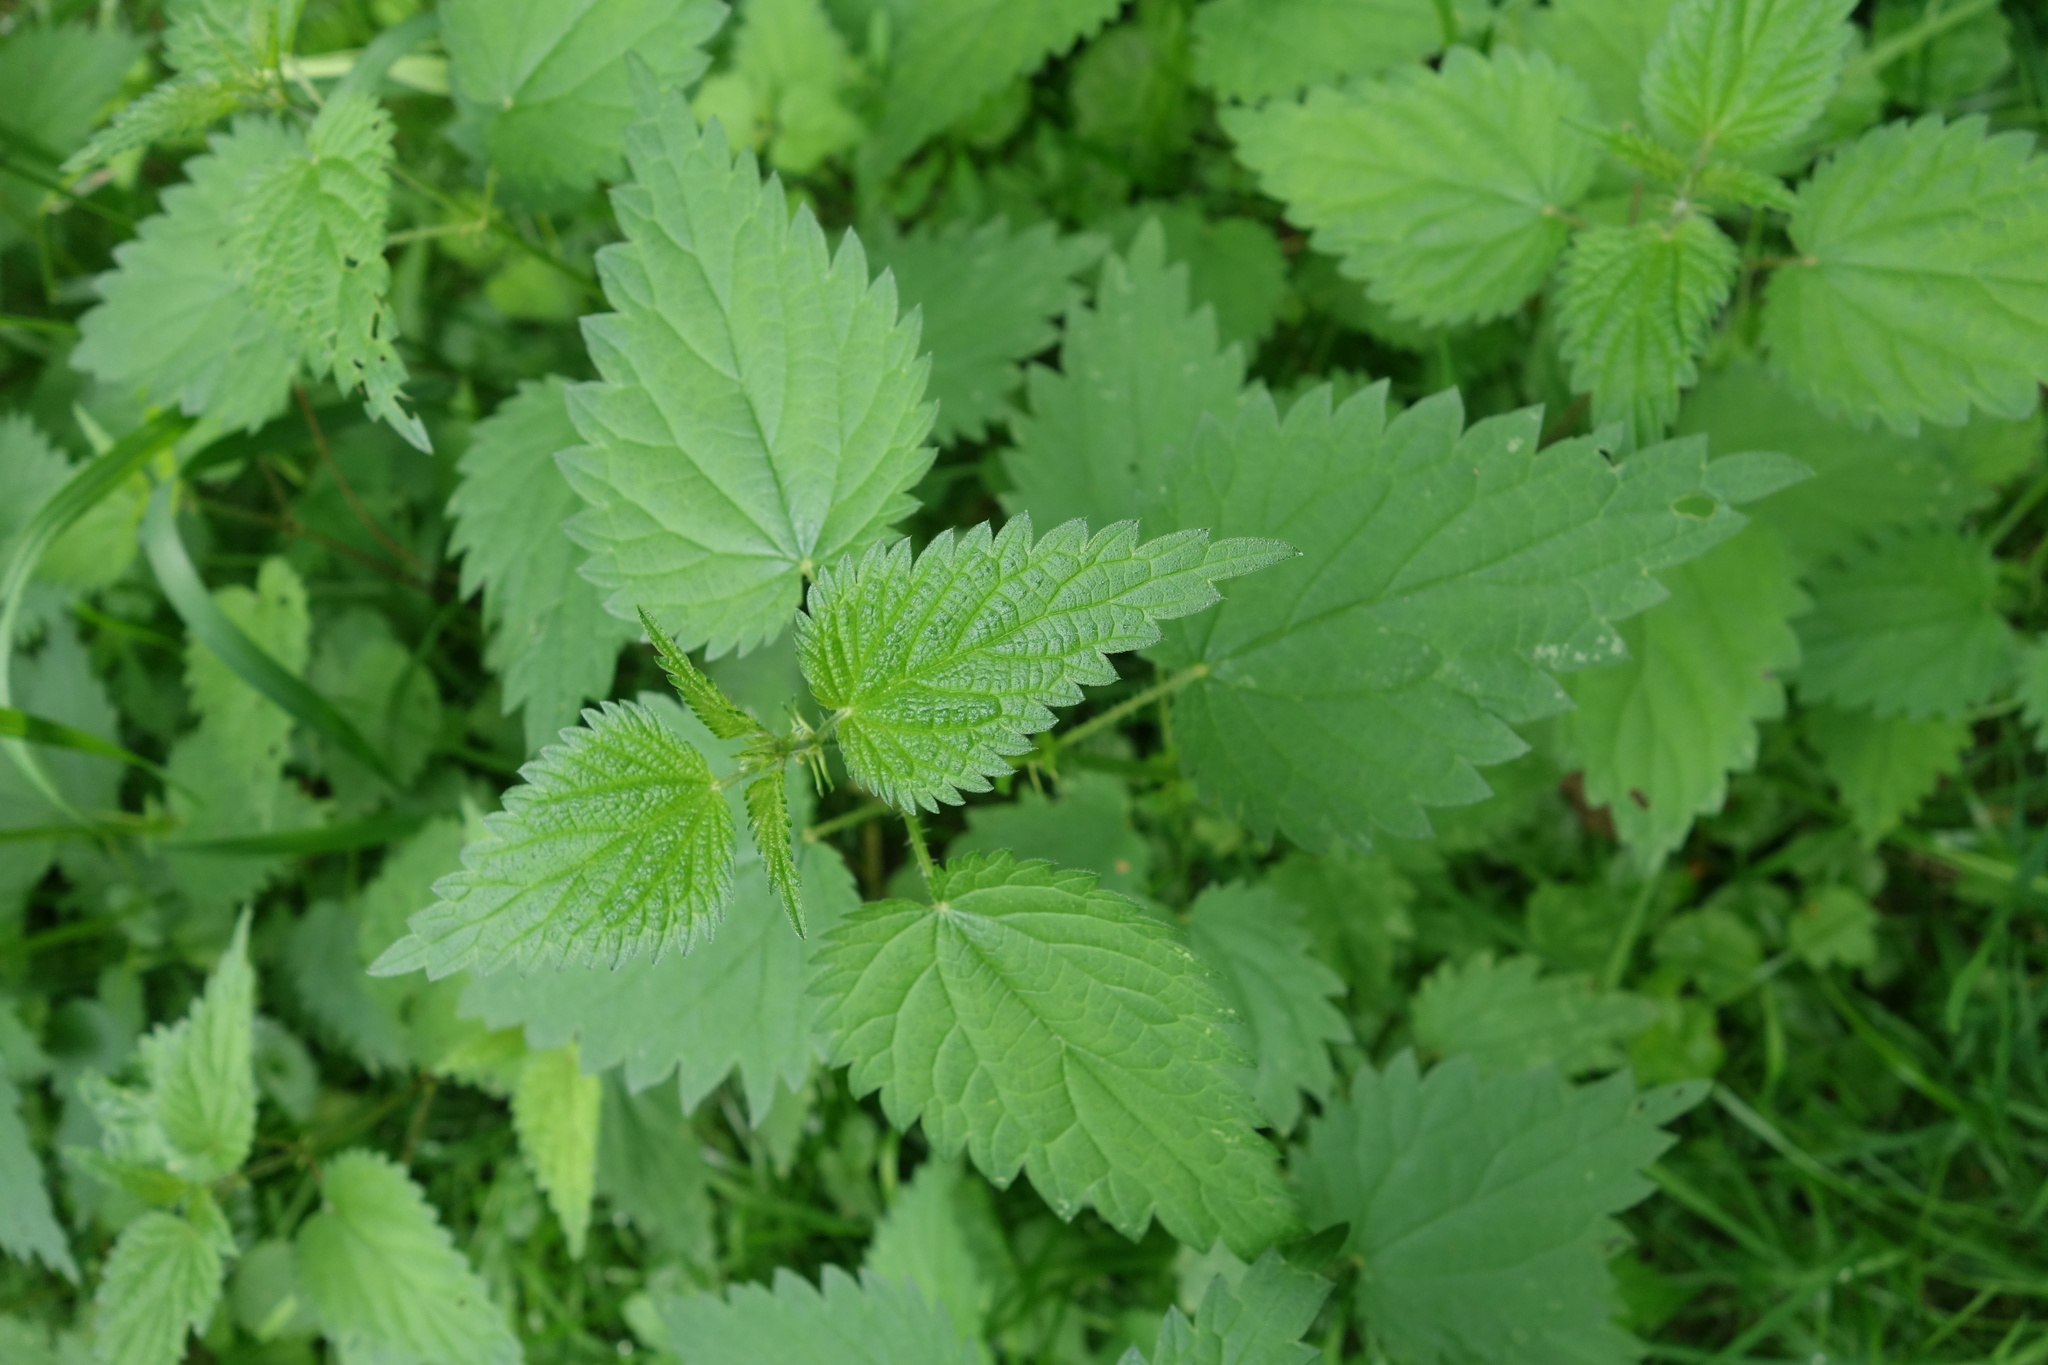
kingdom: Plantae
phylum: Tracheophyta
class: Magnoliopsida
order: Rosales
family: Urticaceae
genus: Urtica
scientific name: Urtica dioica
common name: Common nettle
